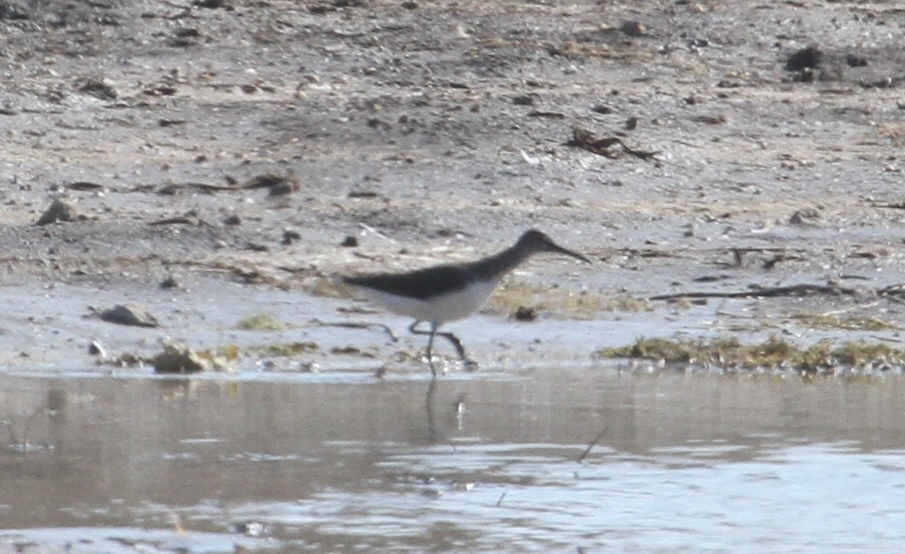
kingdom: Animalia
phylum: Chordata
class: Aves
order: Charadriiformes
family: Scolopacidae
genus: Tringa
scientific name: Tringa ochropus
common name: Green sandpiper
